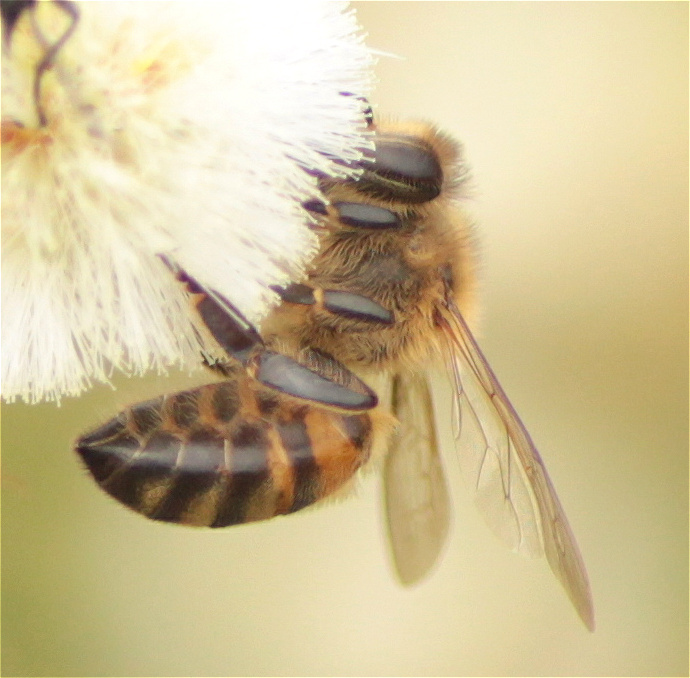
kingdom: Animalia
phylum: Arthropoda
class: Insecta
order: Hymenoptera
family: Apidae
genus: Apis
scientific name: Apis mellifera
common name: Honey bee
